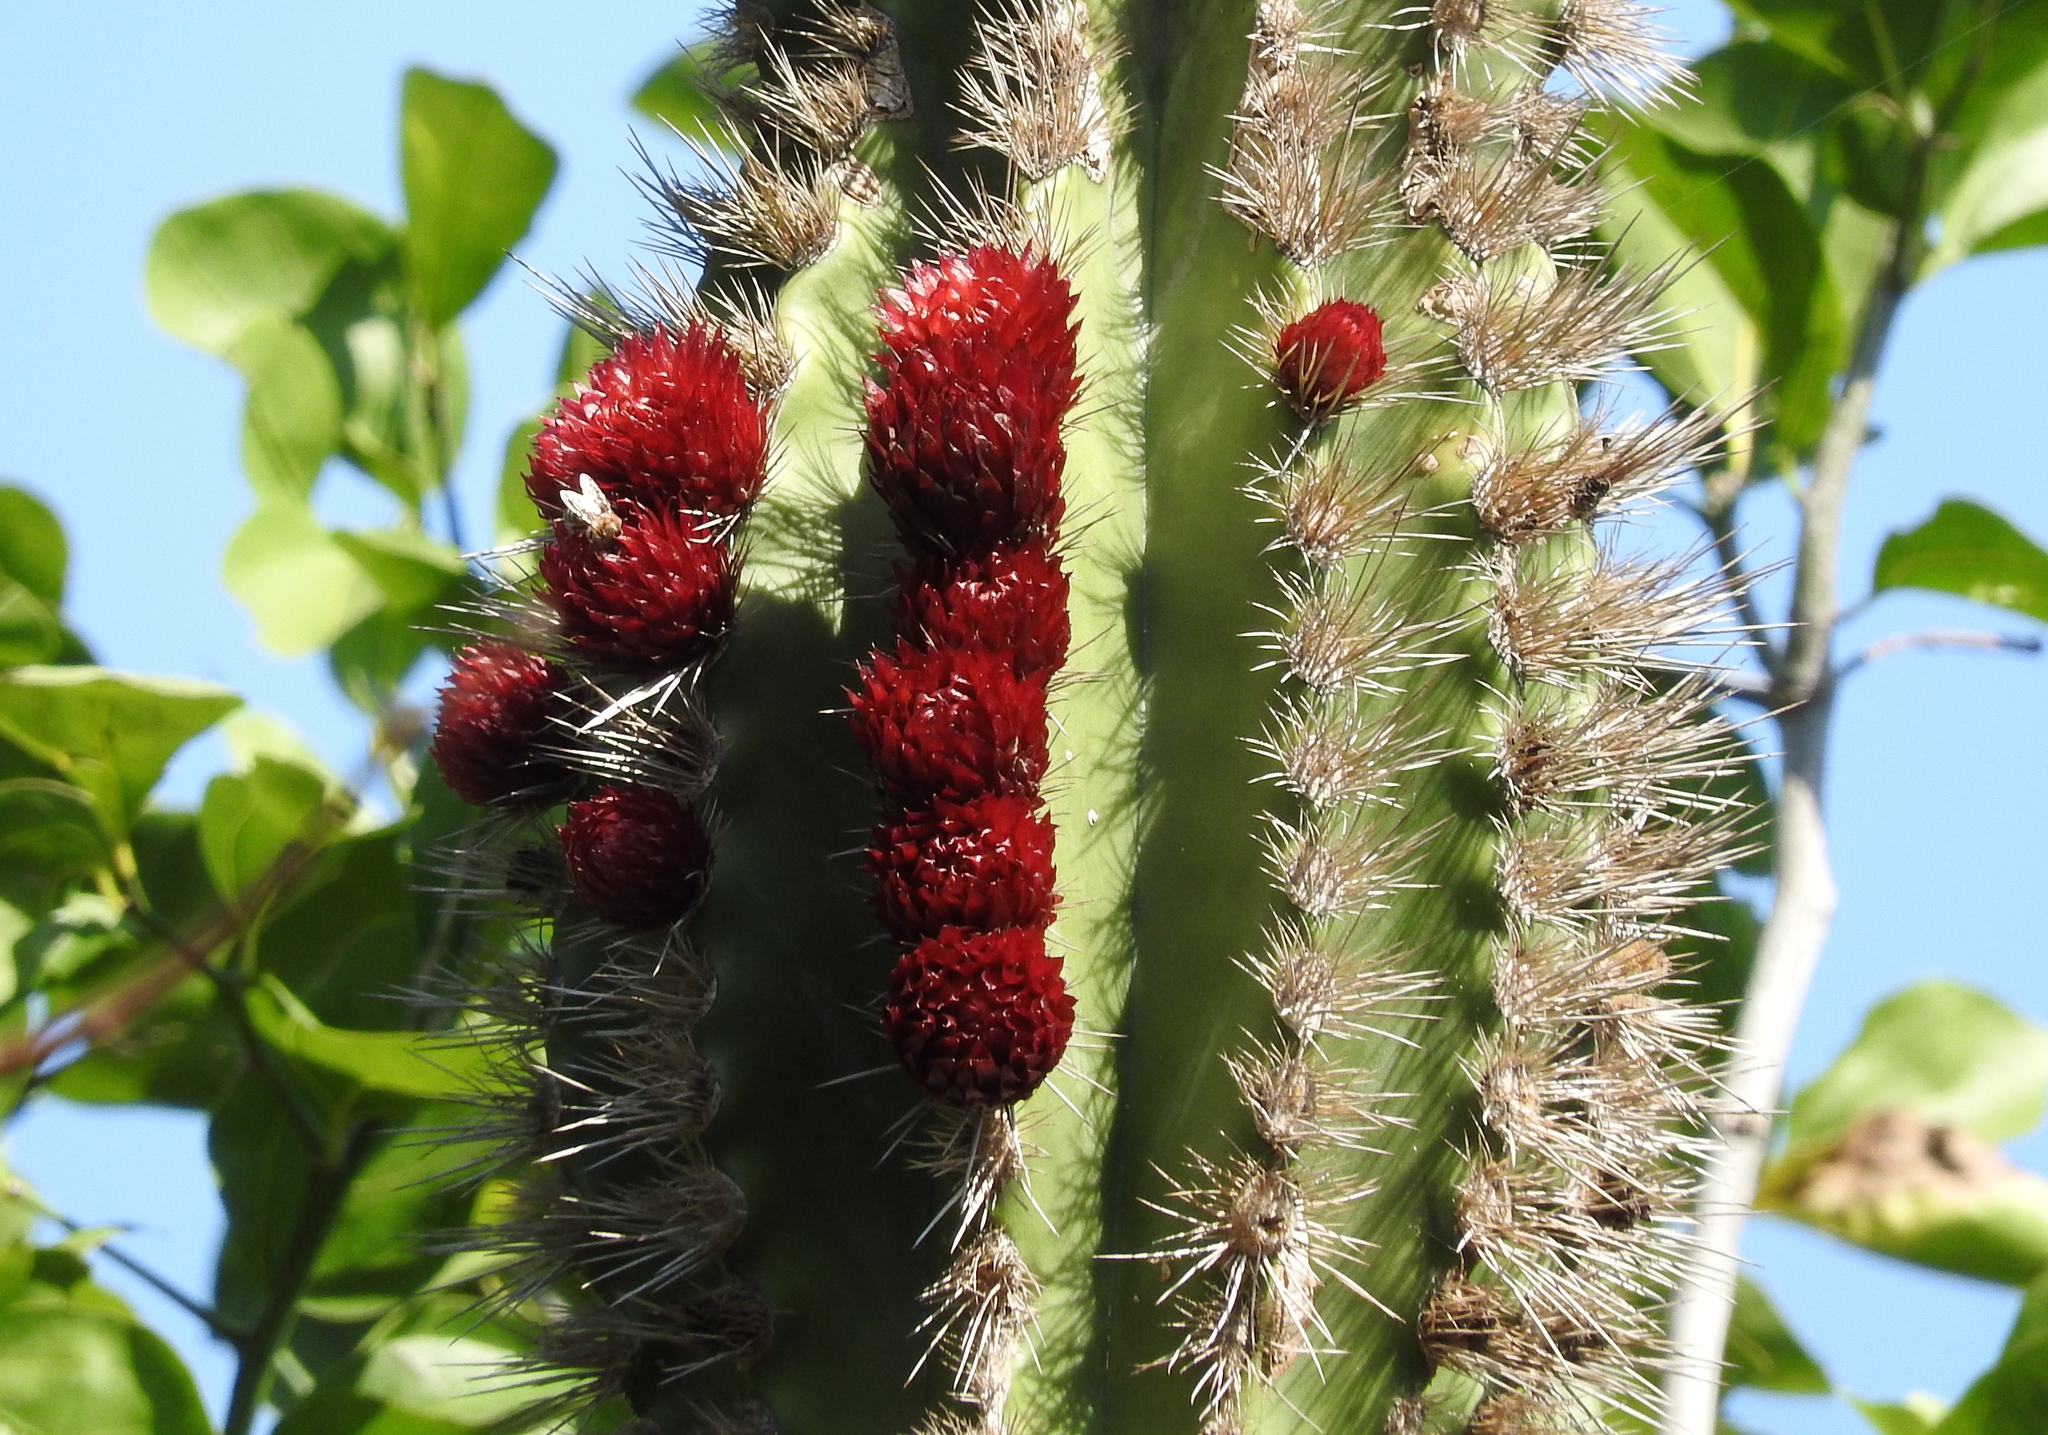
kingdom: Plantae
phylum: Tracheophyta
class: Magnoliopsida
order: Caryophyllales
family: Cactaceae
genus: Pachycereus
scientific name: Pachycereus pecten-aboriginum
